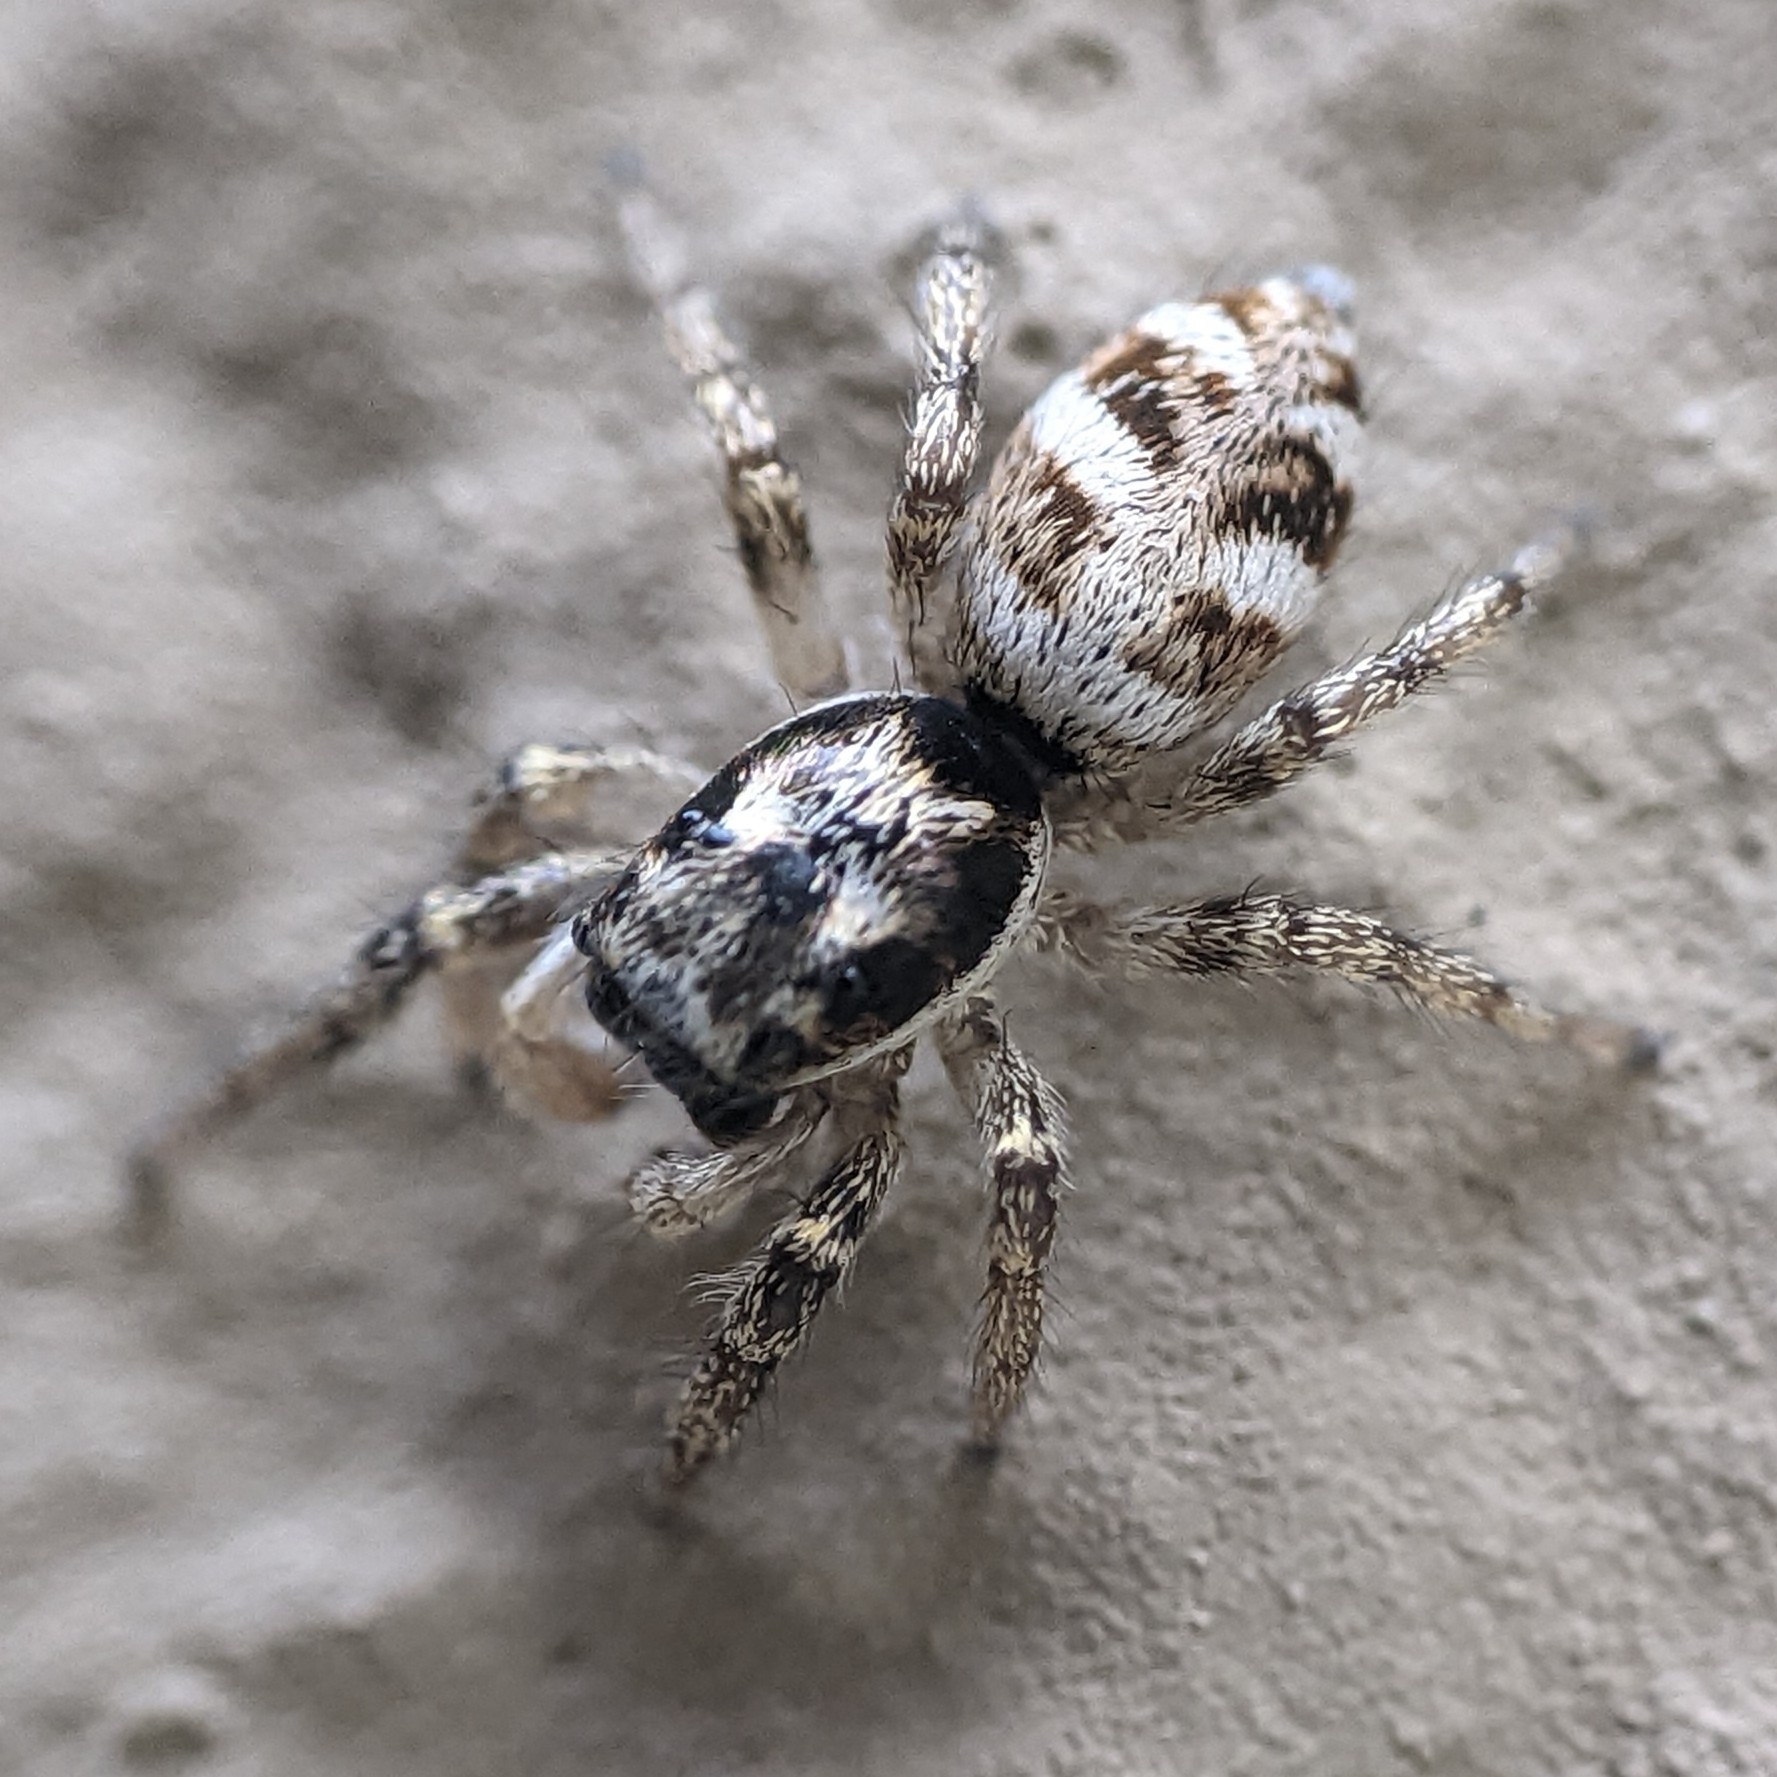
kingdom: Animalia
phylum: Arthropoda
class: Arachnida
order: Araneae
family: Salticidae
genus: Salticus
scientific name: Salticus scenicus
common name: Zebra jumper
